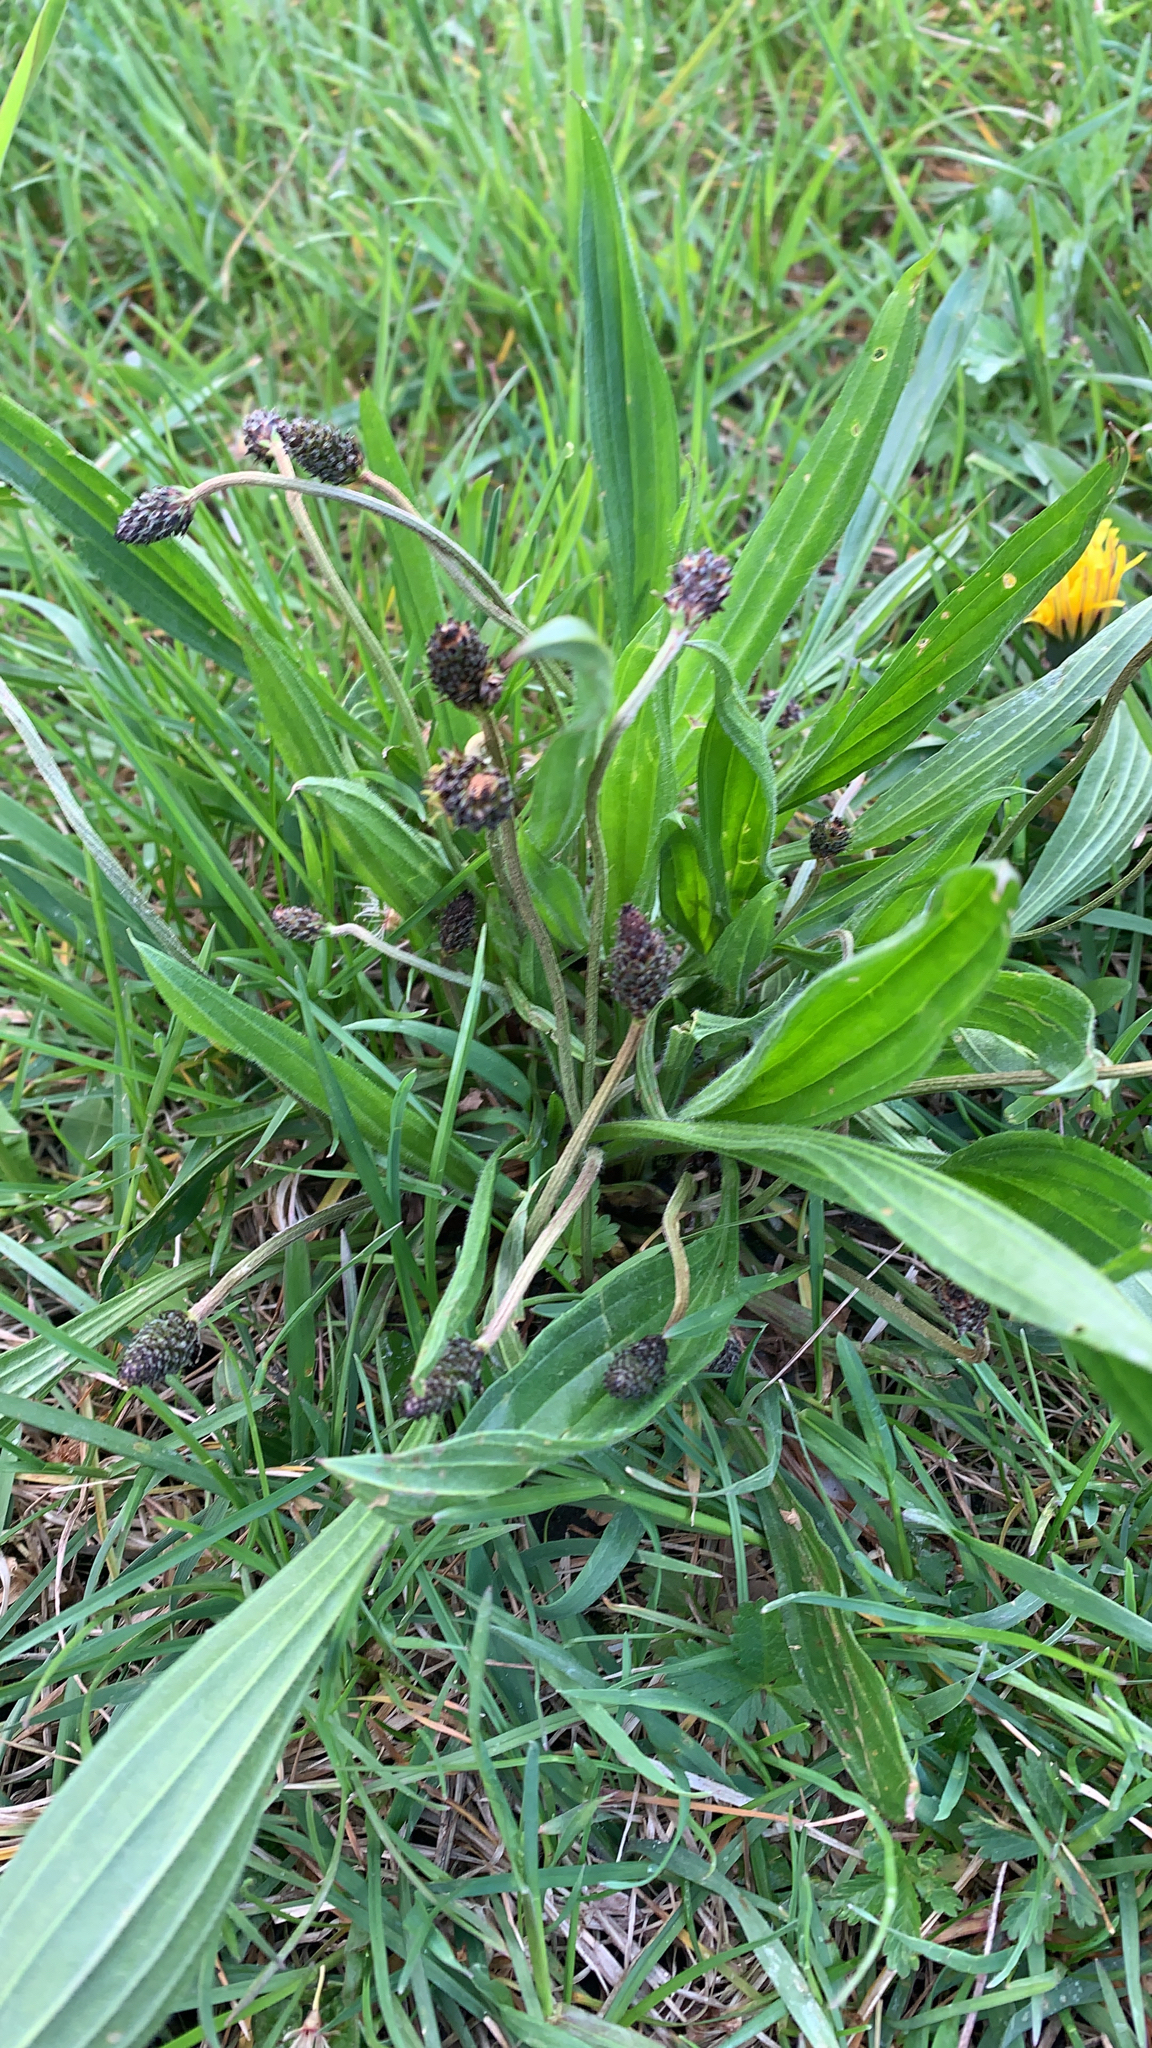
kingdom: Plantae
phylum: Tracheophyta
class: Magnoliopsida
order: Lamiales
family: Plantaginaceae
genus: Plantago
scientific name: Plantago lanceolata
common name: Ribwort plantain
